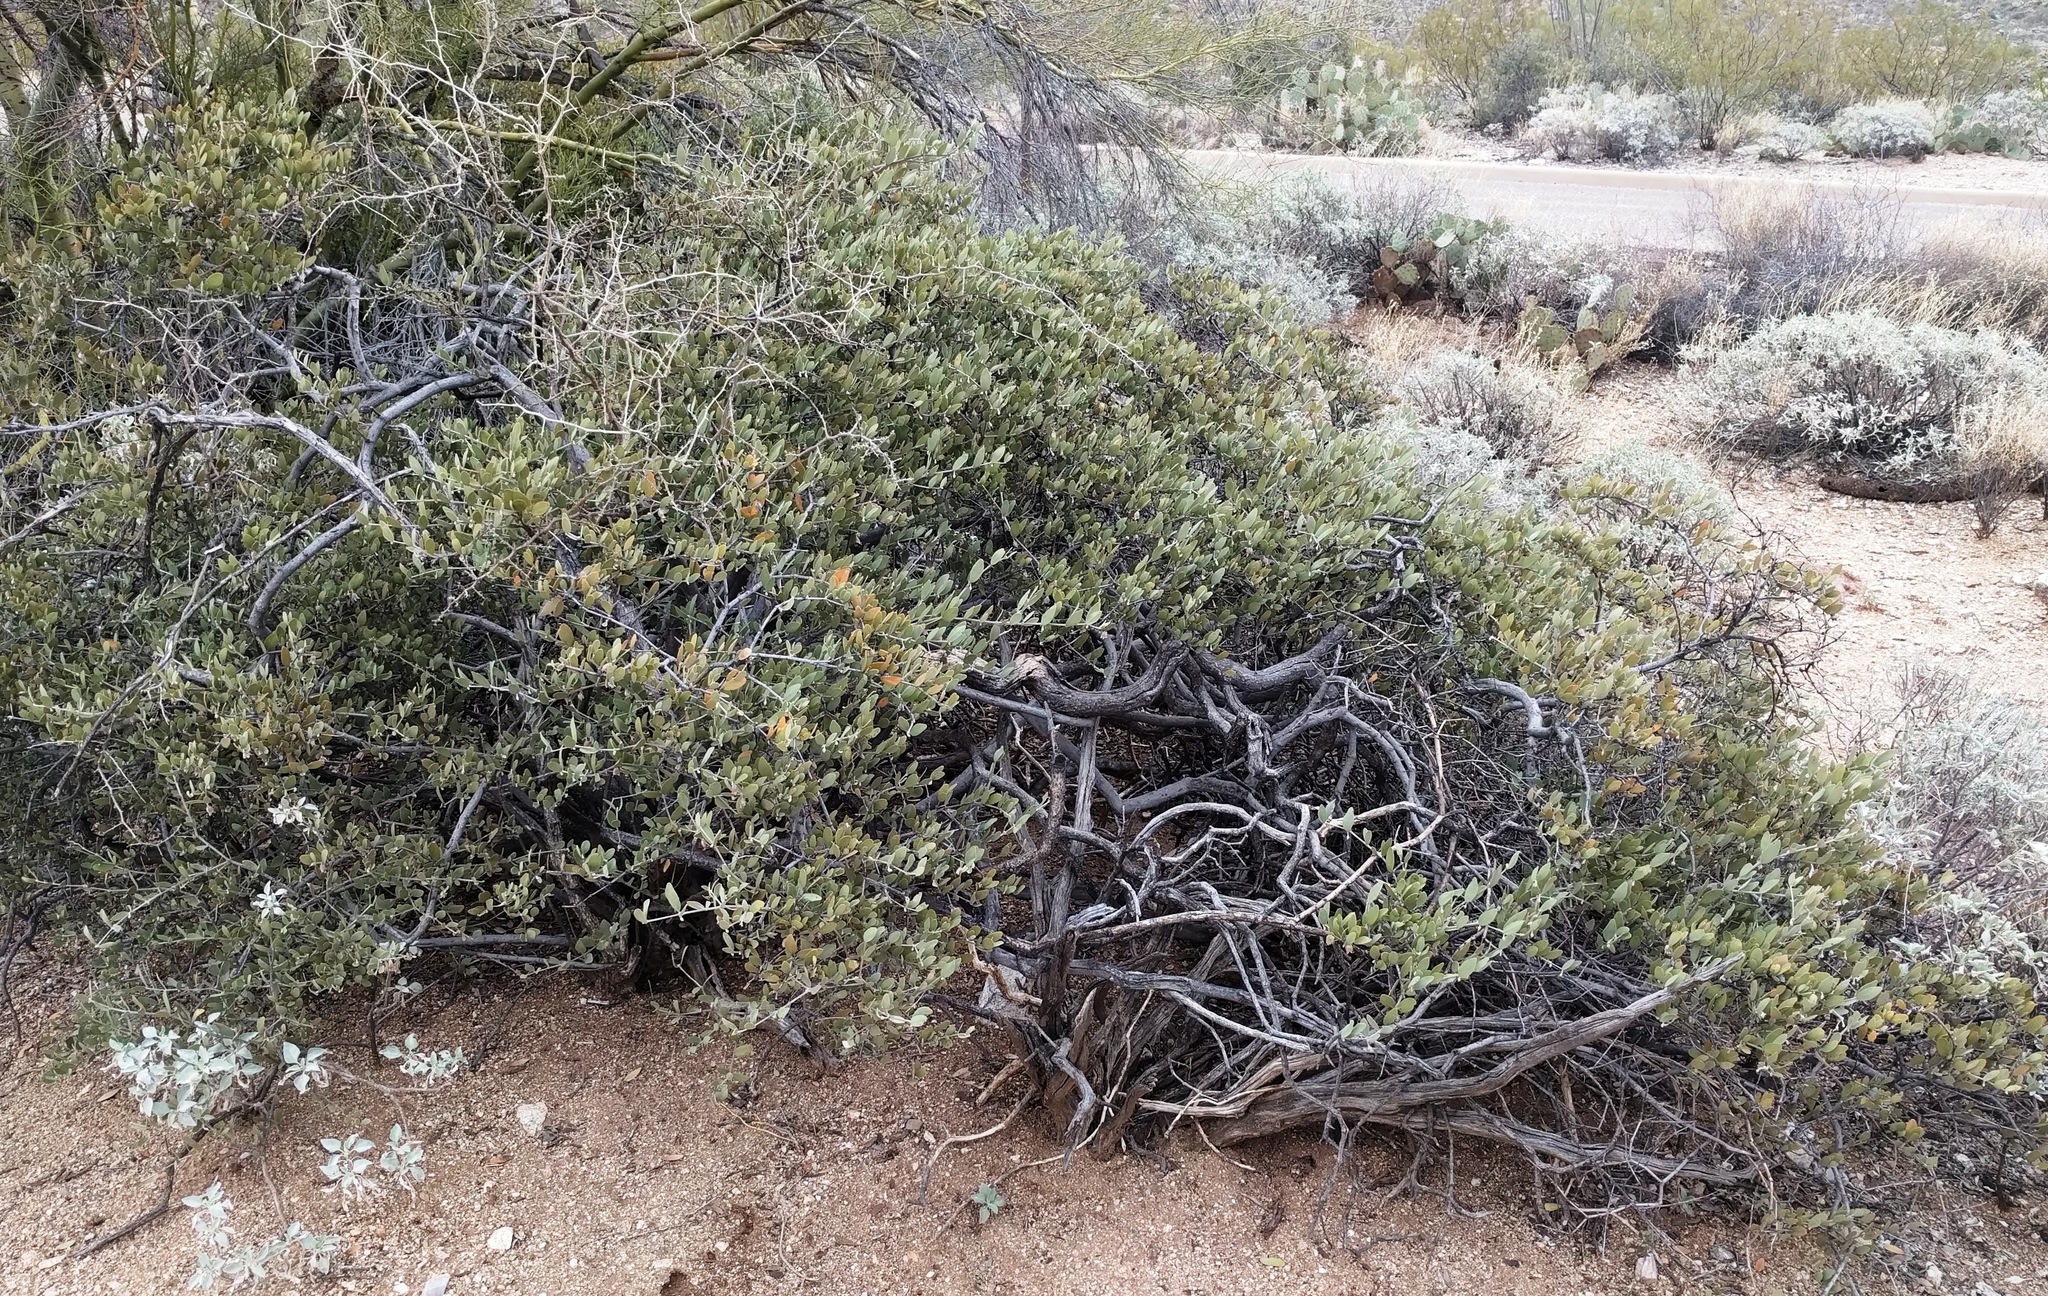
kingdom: Plantae
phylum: Tracheophyta
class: Magnoliopsida
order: Caryophyllales
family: Simmondsiaceae
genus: Simmondsia
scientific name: Simmondsia chinensis
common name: Jojoba
